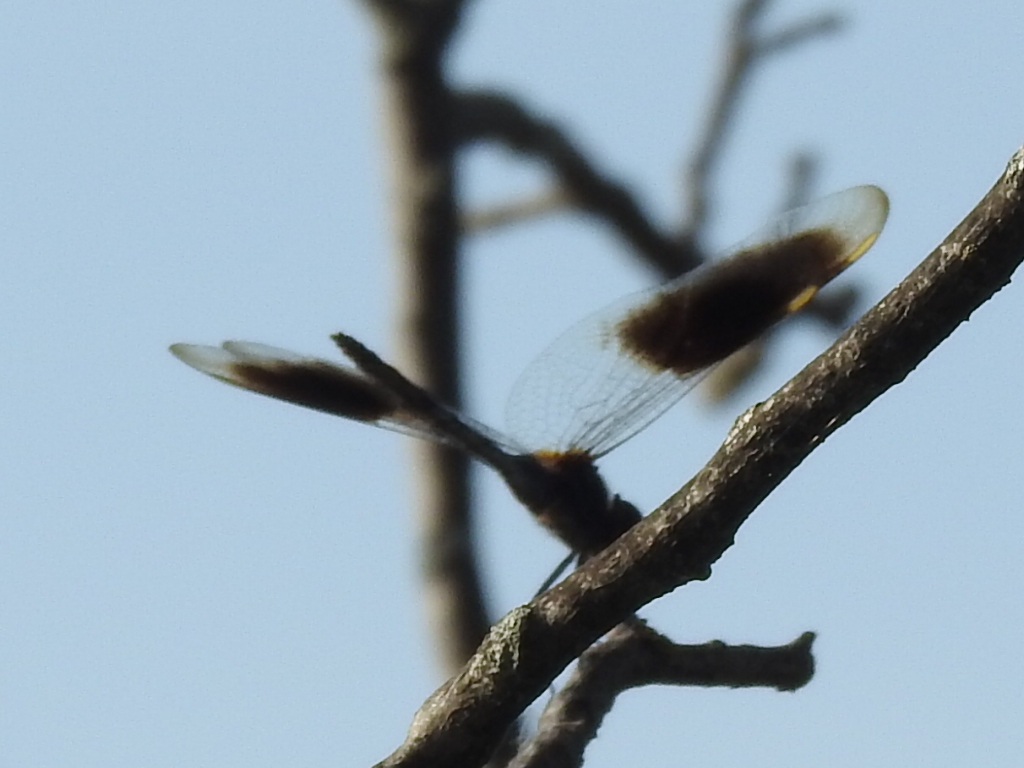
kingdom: Animalia
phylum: Arthropoda
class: Insecta
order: Odonata
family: Libellulidae
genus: Brachymesia
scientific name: Brachymesia gravida
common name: Four-spotted pennant
